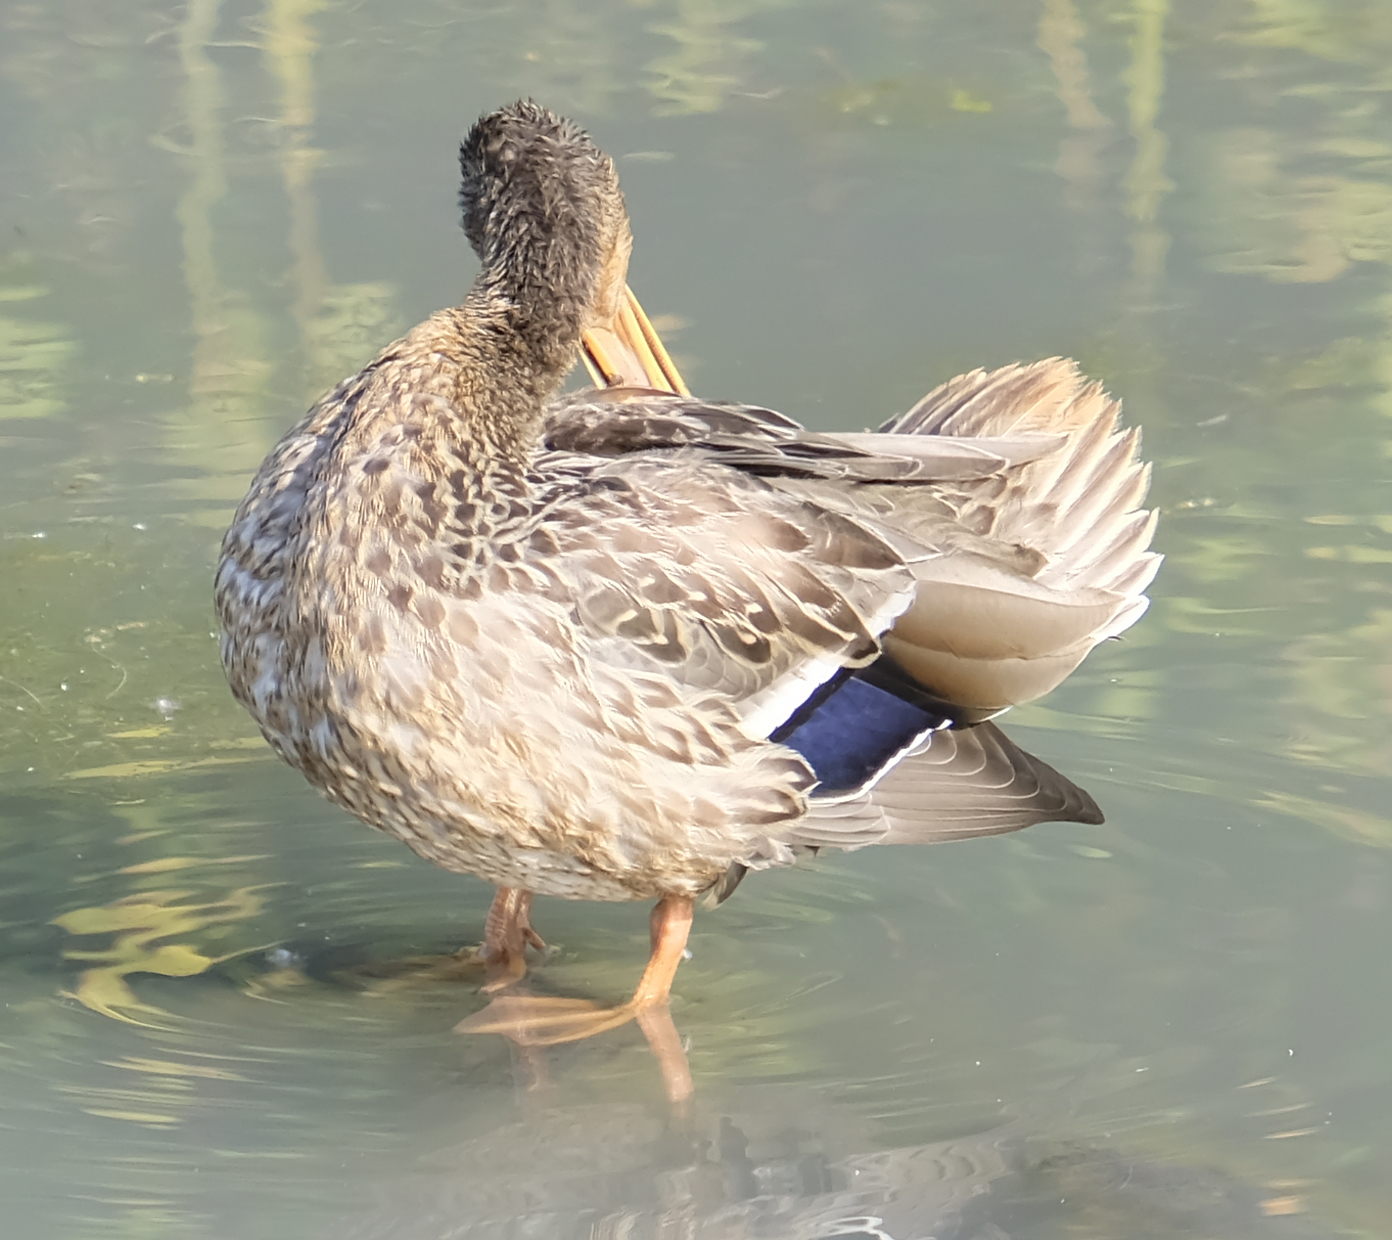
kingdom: Animalia
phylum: Chordata
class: Aves
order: Anseriformes
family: Anatidae
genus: Anas
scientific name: Anas platyrhynchos
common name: Mallard
